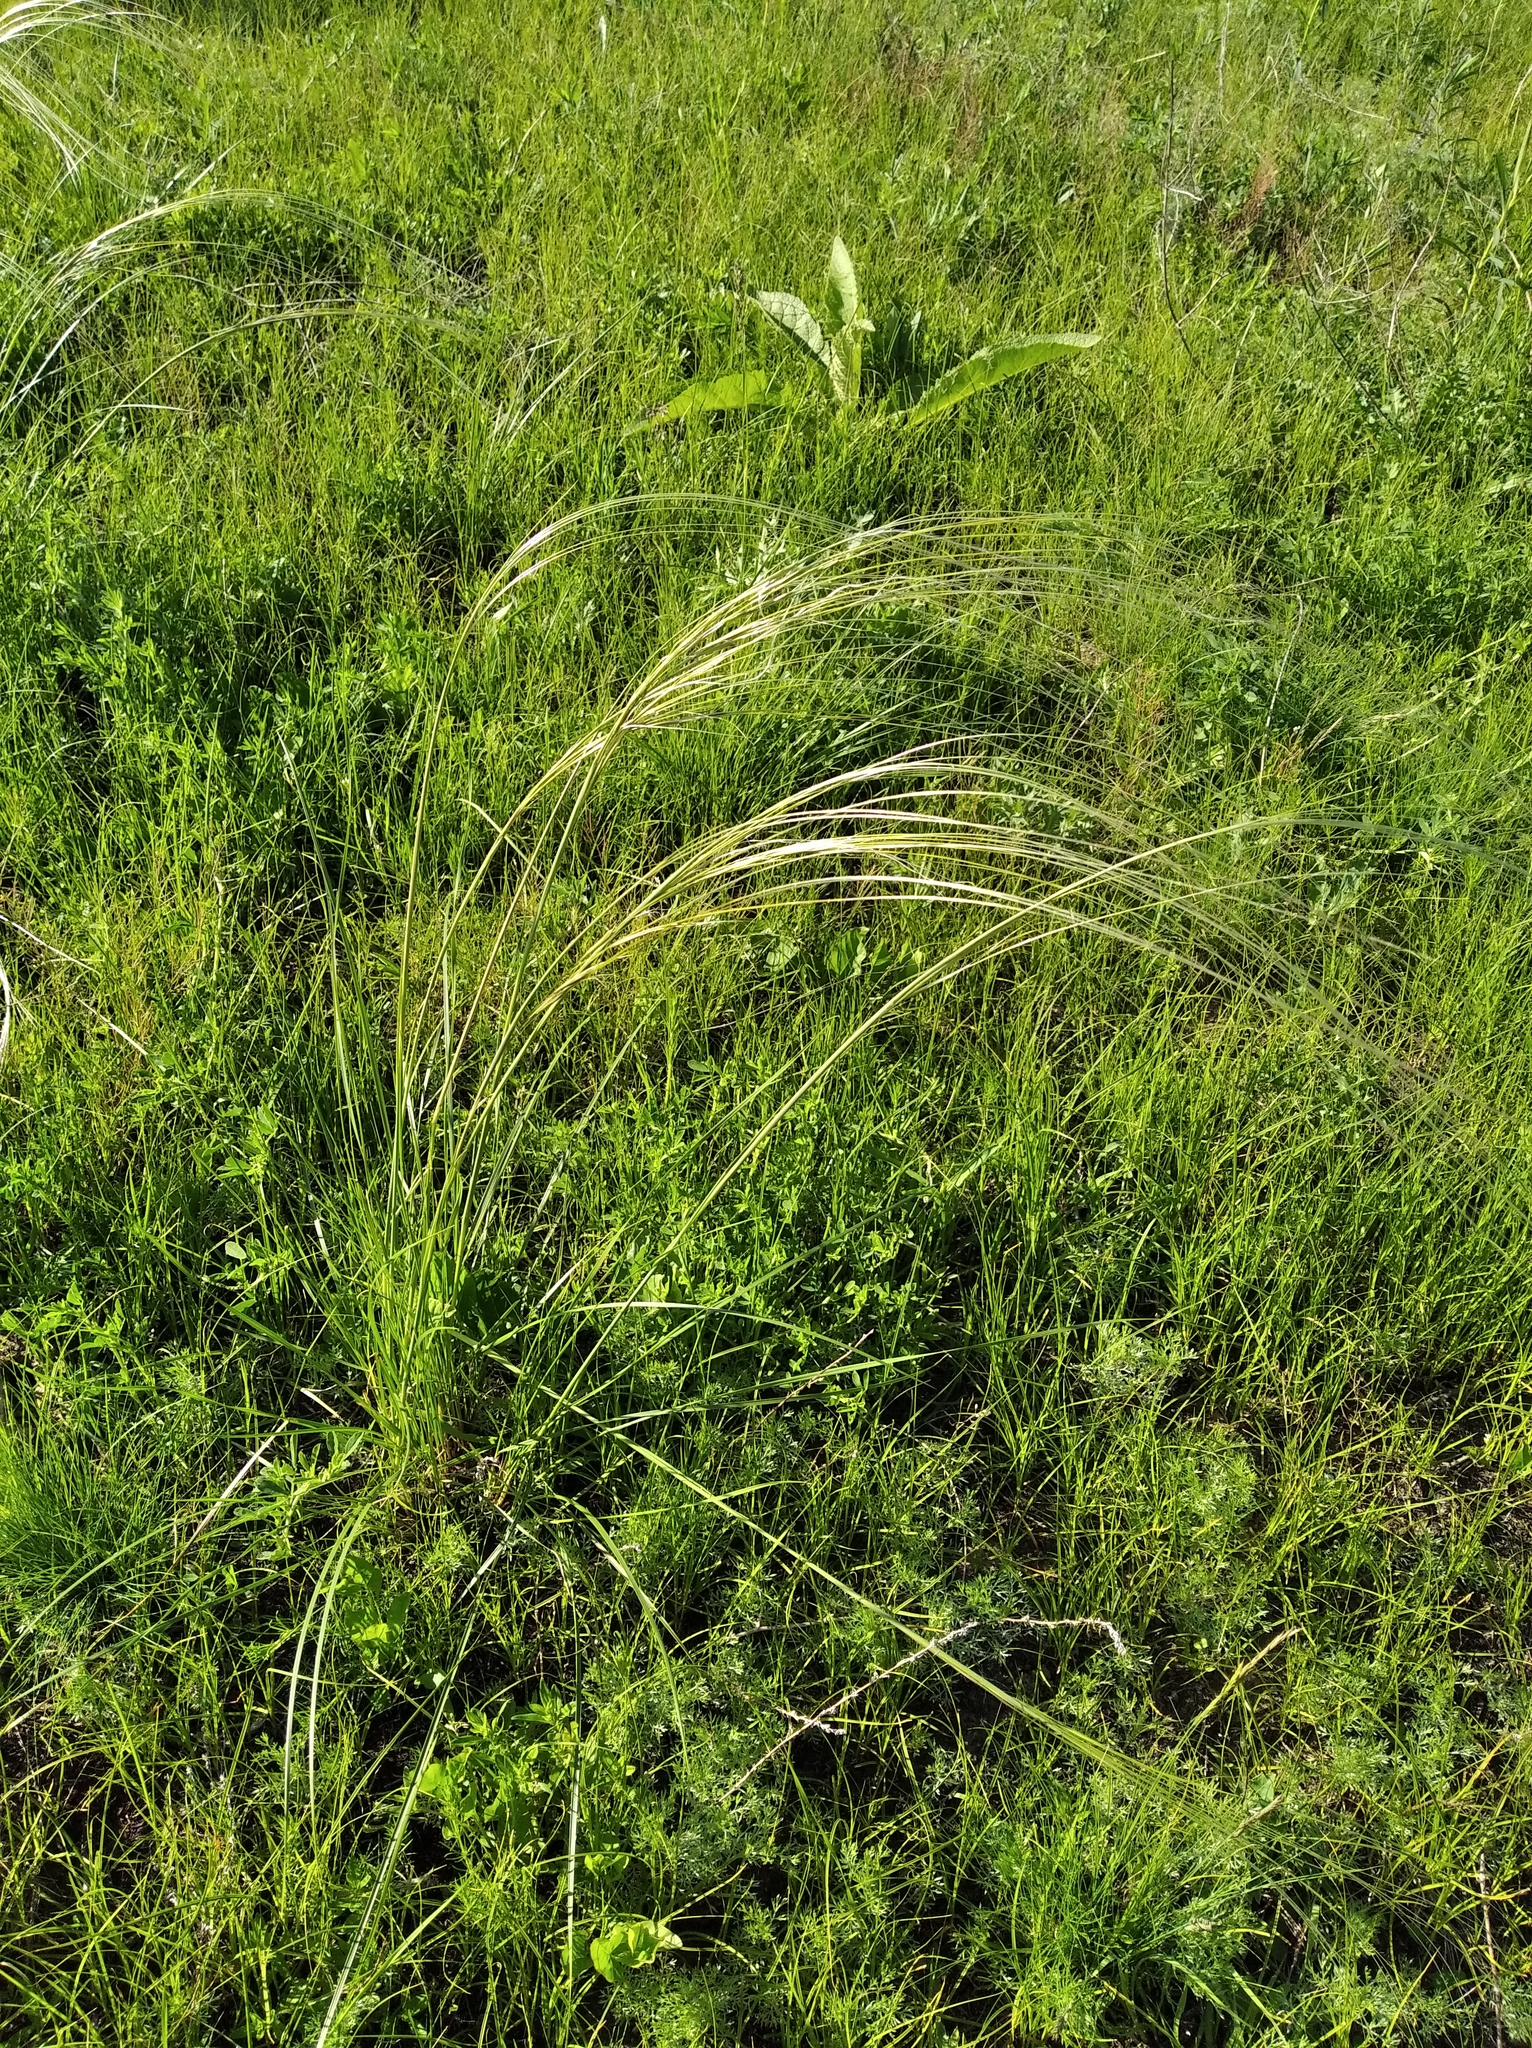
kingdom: Plantae
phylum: Tracheophyta
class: Liliopsida
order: Poales
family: Poaceae
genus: Stipa
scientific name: Stipa pennata
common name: European feather grass
